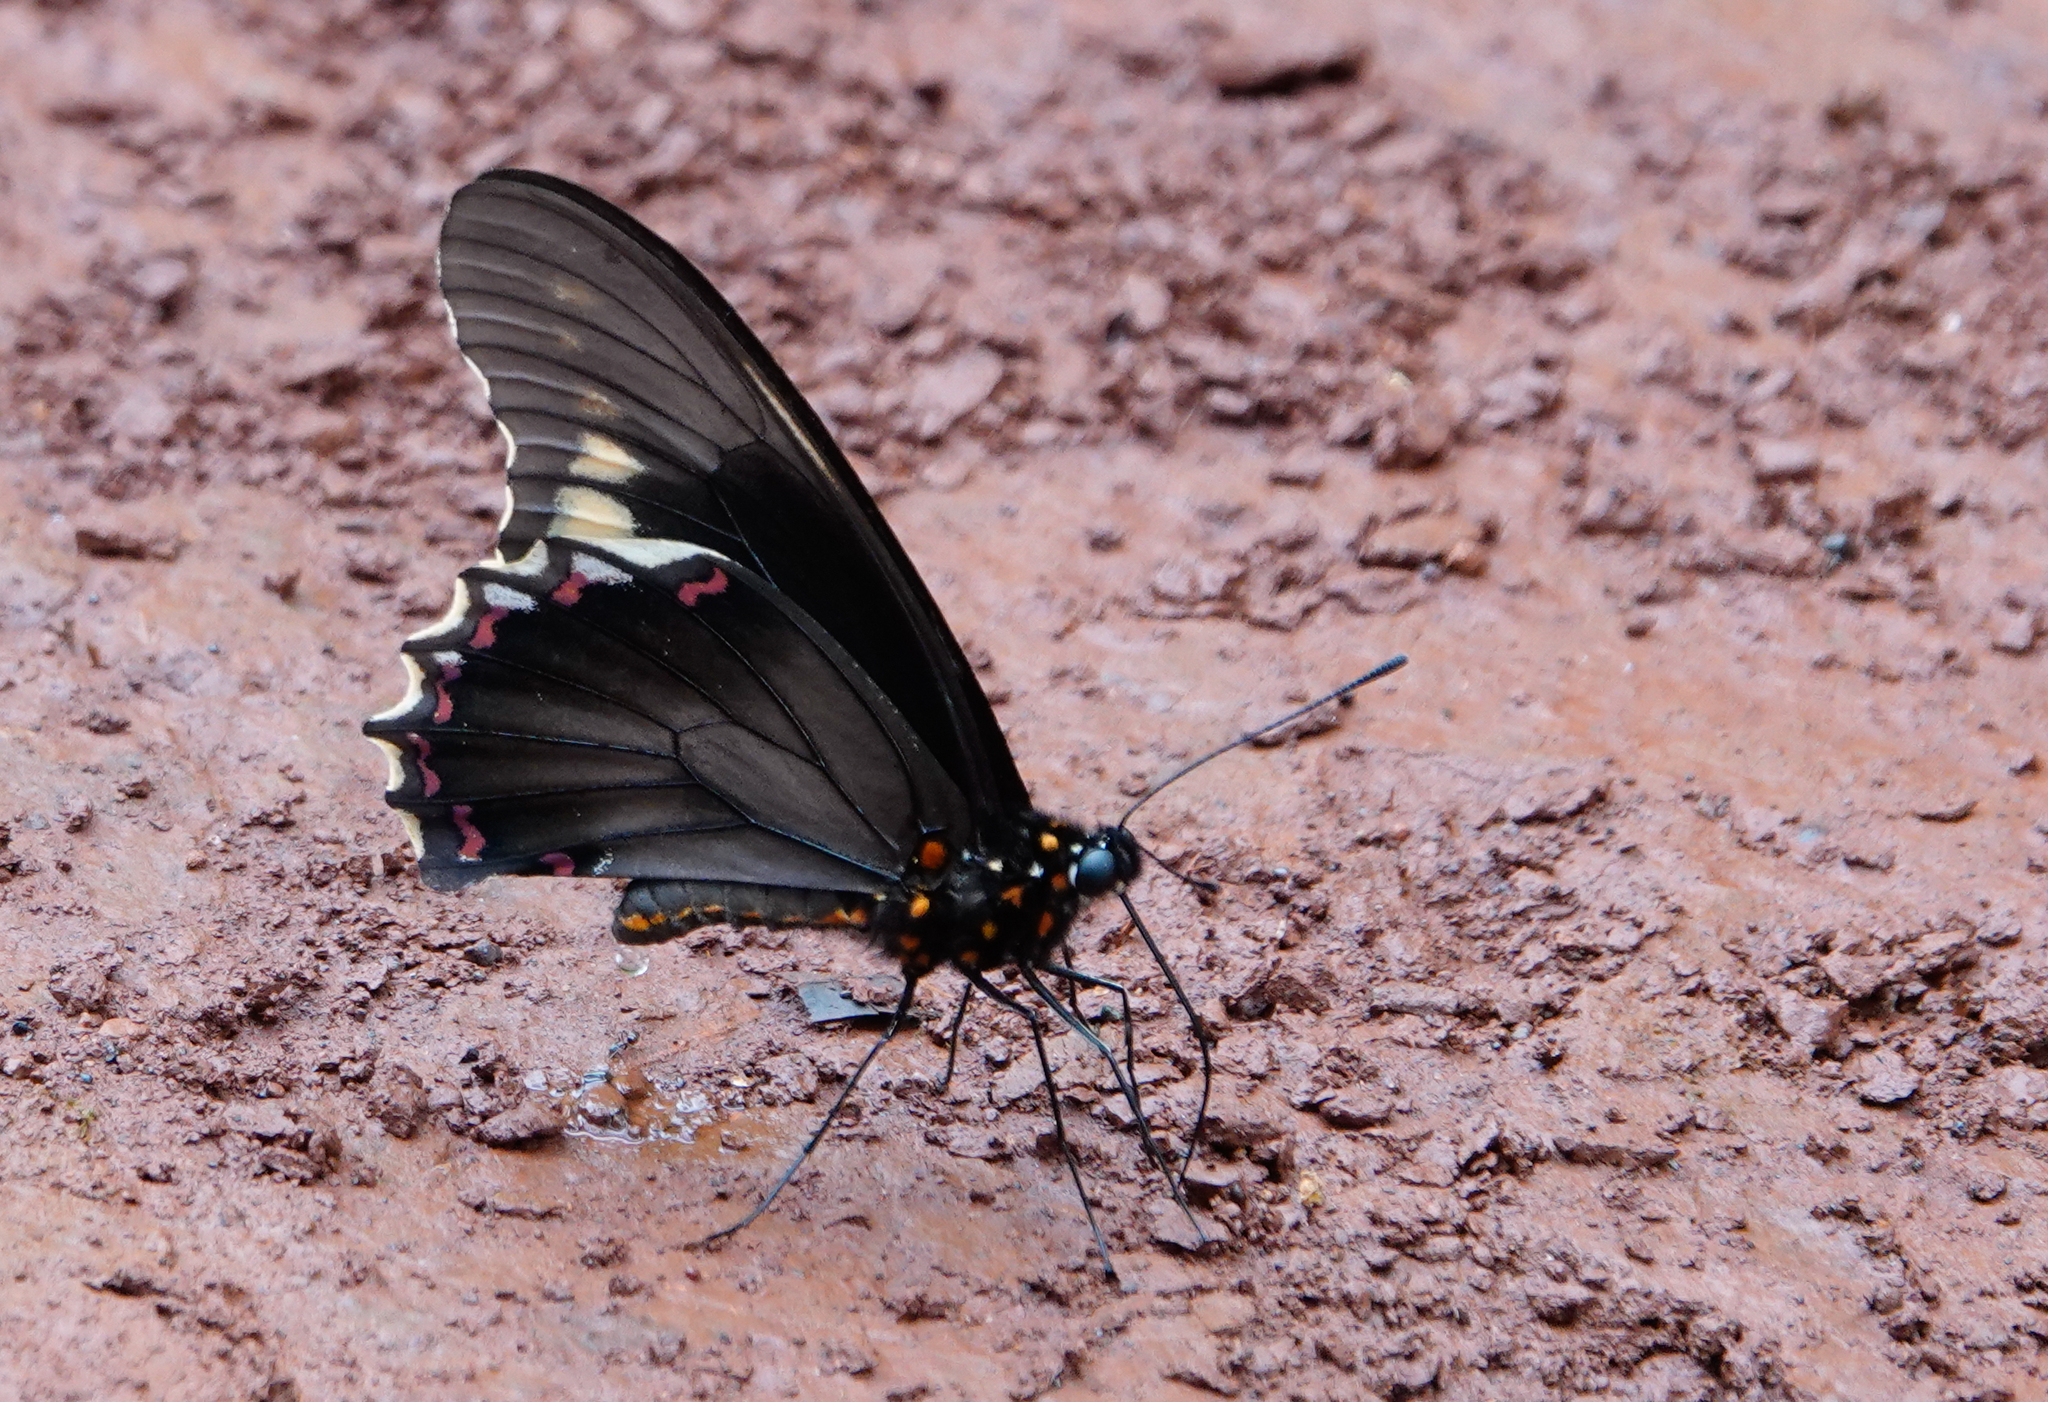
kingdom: Animalia
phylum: Arthropoda
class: Insecta
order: Lepidoptera
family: Papilionidae
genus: Battus
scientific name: Battus polydamas
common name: Polydamas swallowtail
